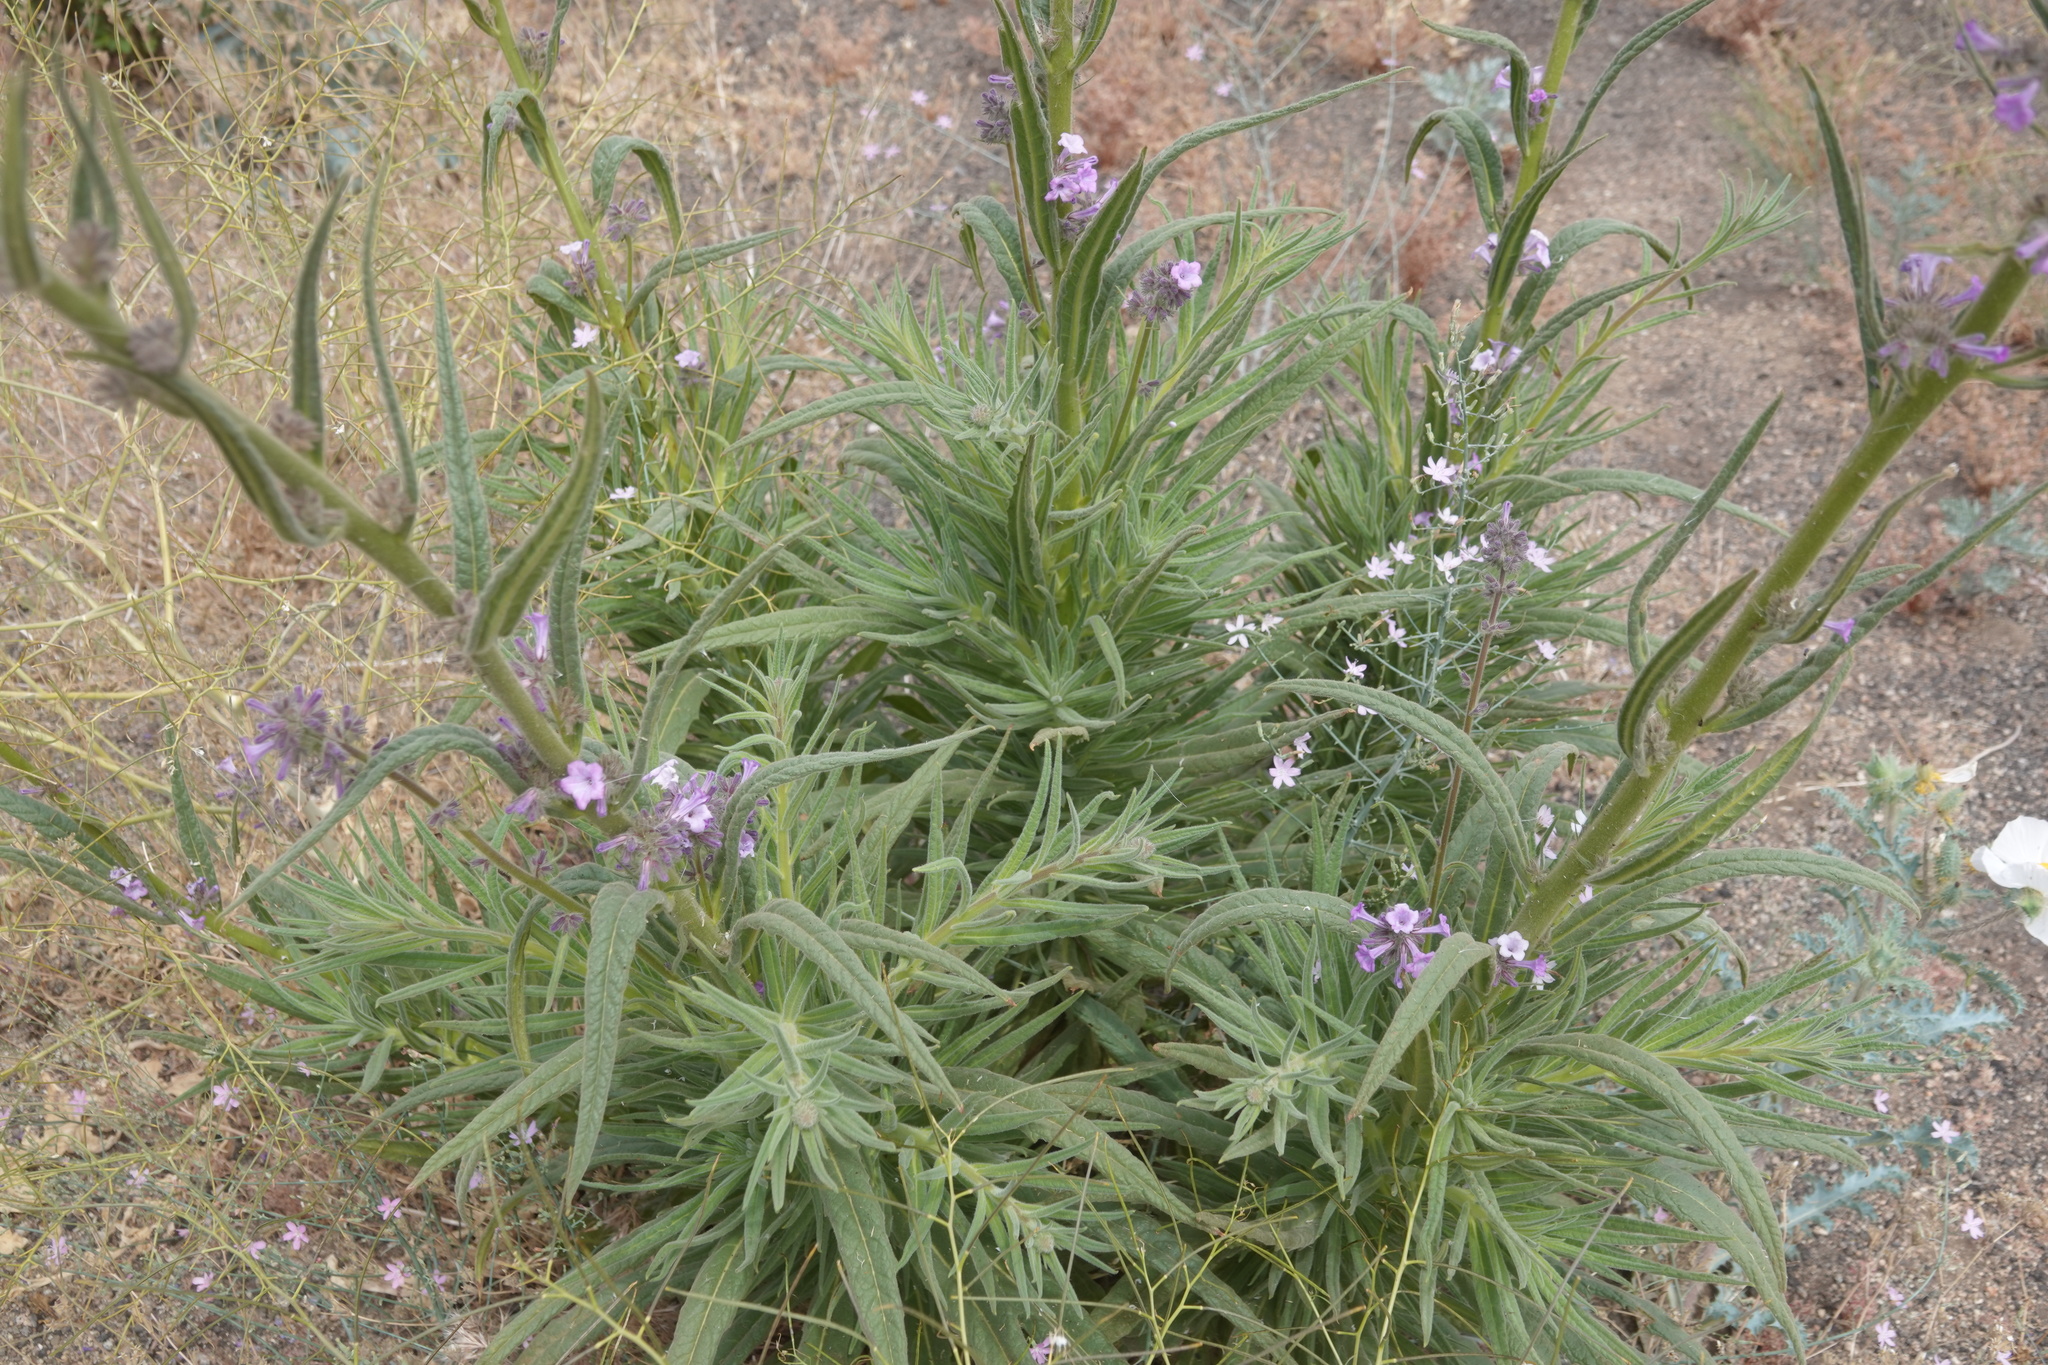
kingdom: Plantae
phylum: Tracheophyta
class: Magnoliopsida
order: Boraginales
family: Namaceae
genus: Turricula
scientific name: Turricula parryi
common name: Poodle-dog-bush
